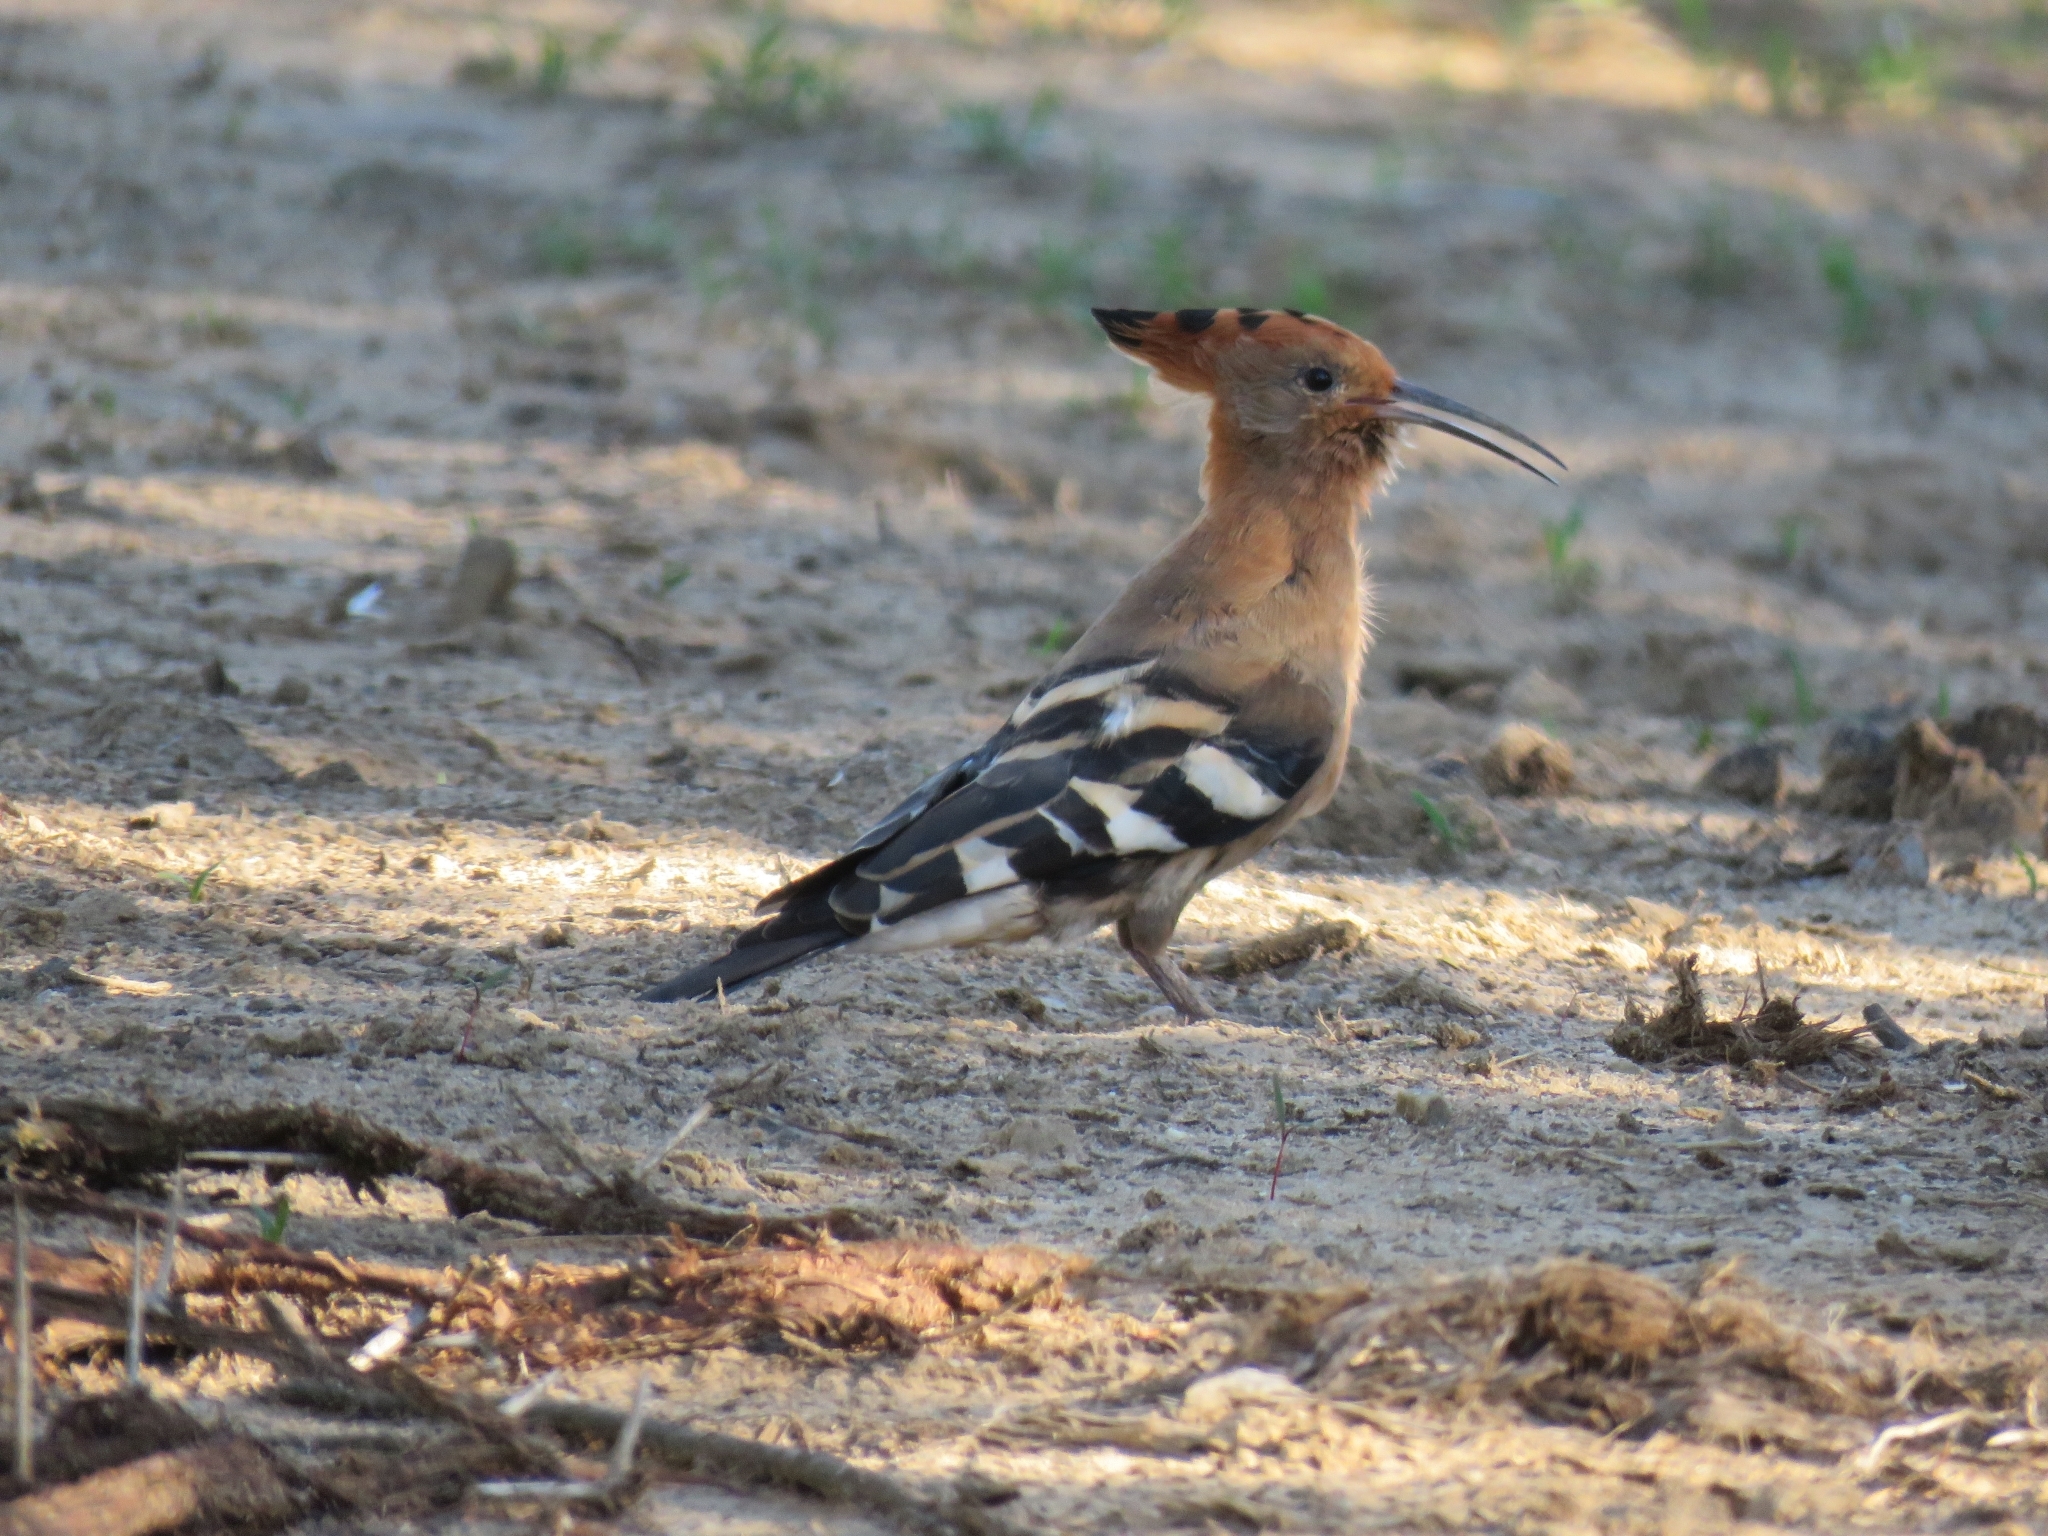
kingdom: Animalia
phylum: Chordata
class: Aves
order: Bucerotiformes
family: Upupidae
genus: Upupa
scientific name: Upupa africana
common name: African hoopoe
